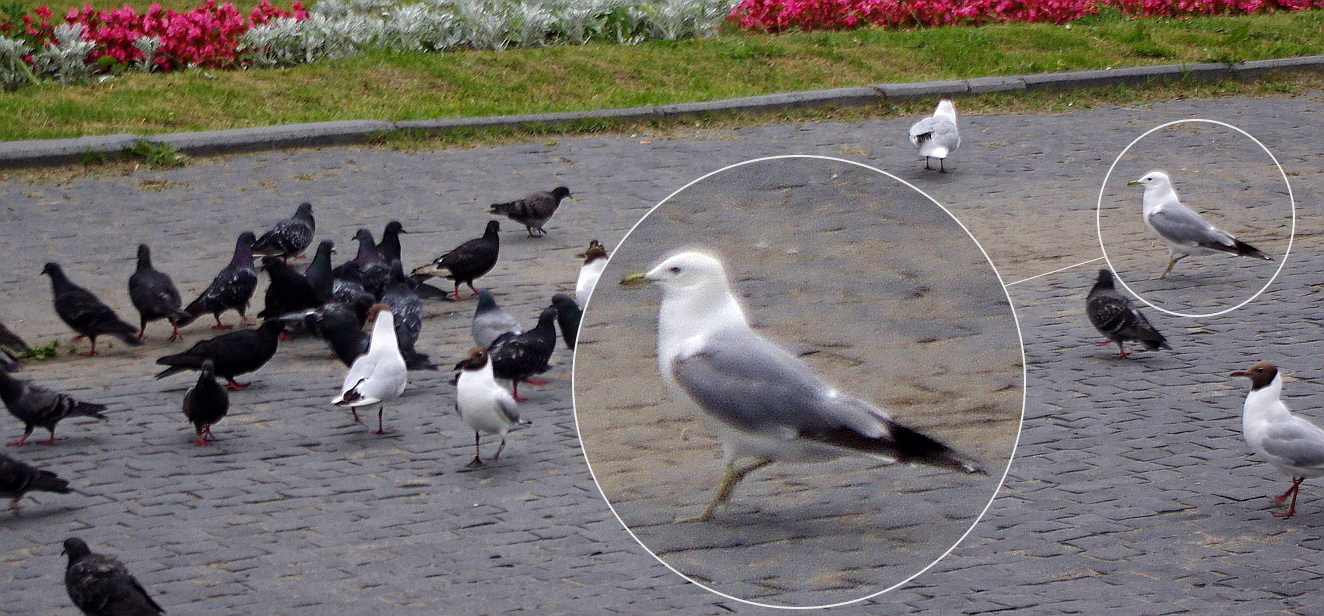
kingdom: Animalia
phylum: Chordata
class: Aves
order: Charadriiformes
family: Laridae
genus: Larus
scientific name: Larus canus
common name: Mew gull
